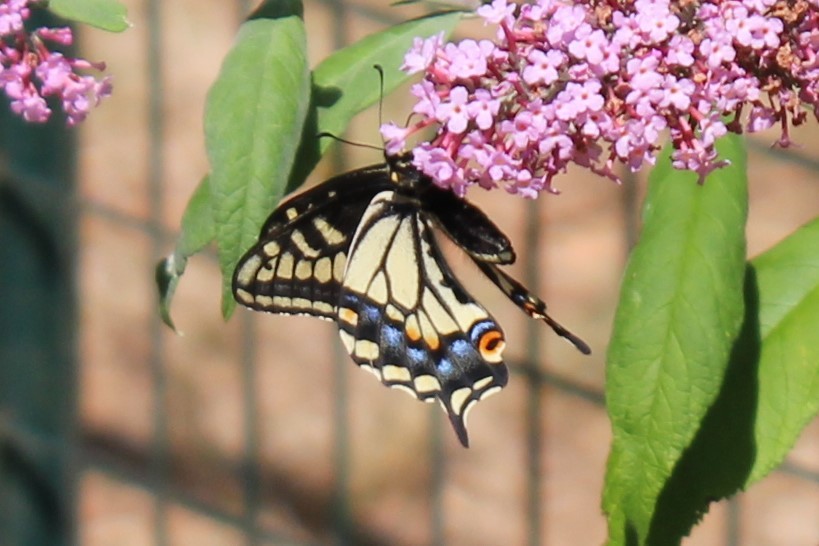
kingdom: Animalia
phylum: Arthropoda
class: Insecta
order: Lepidoptera
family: Papilionidae
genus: Papilio
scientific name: Papilio zelicaon
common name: Anise swallowtail
